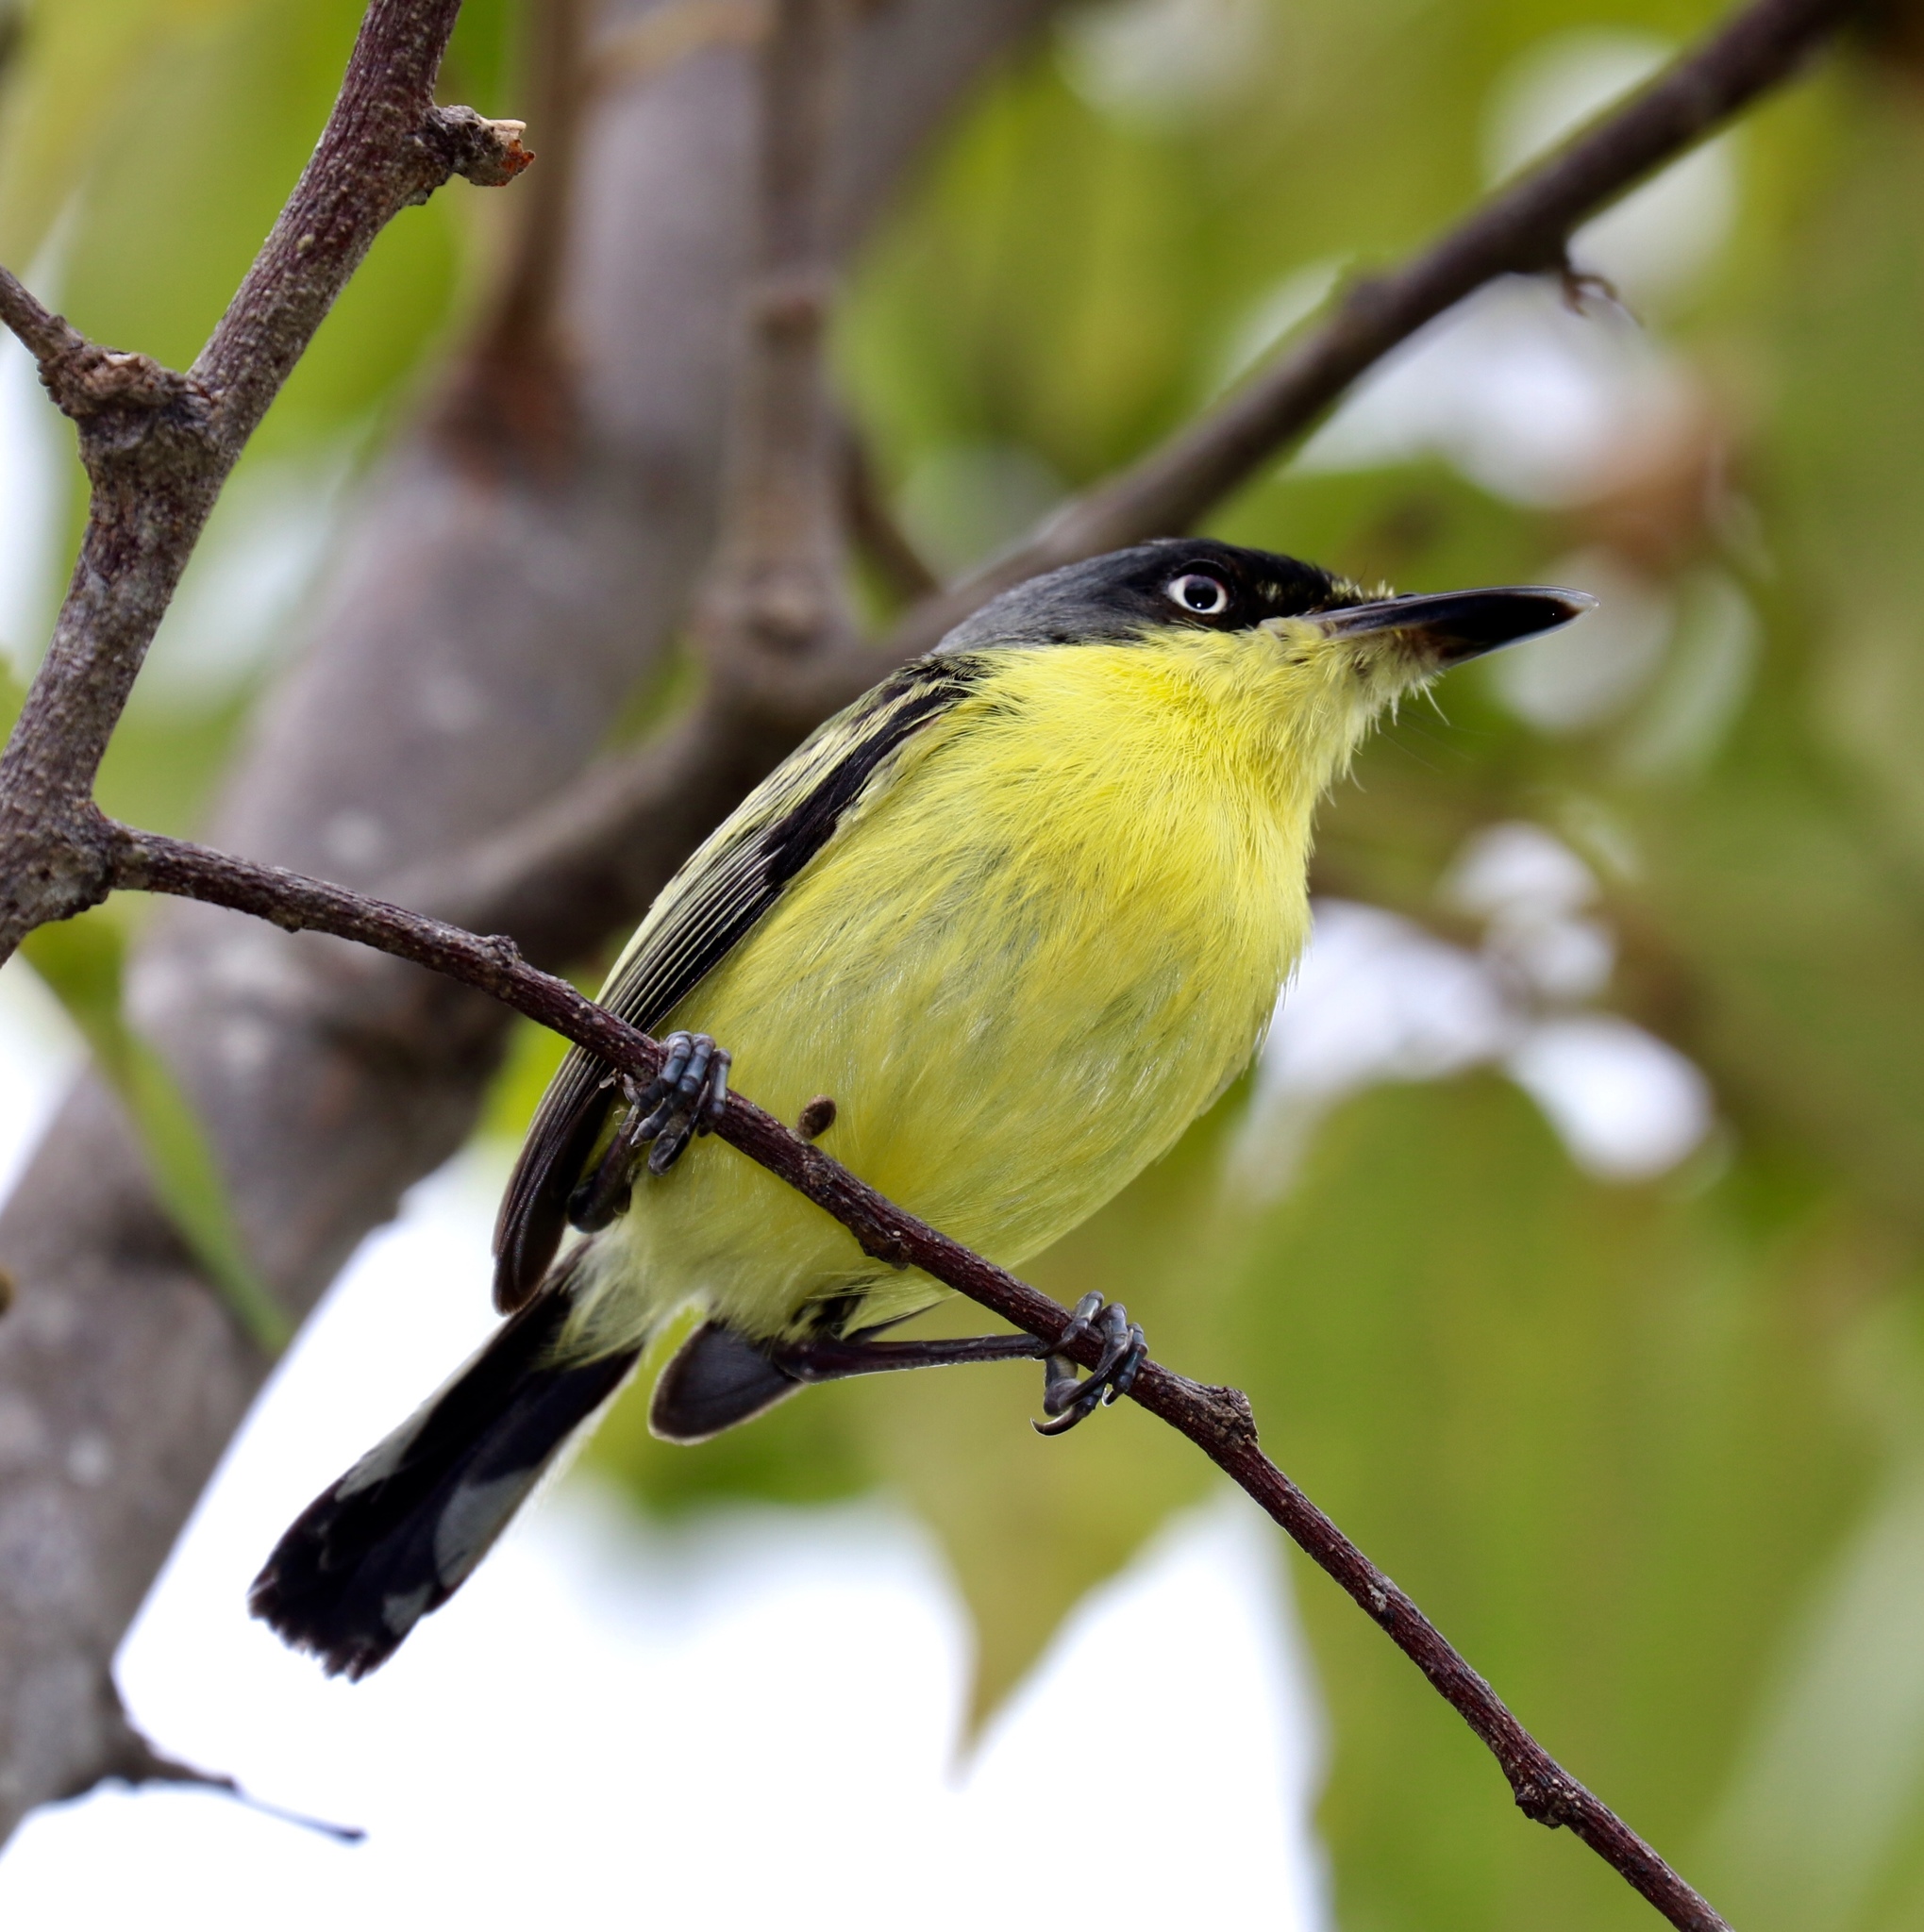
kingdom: Animalia
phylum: Chordata
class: Aves
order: Passeriformes
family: Tyrannidae
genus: Todirostrum
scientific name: Todirostrum cinereum
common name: Common tody-flycatcher
